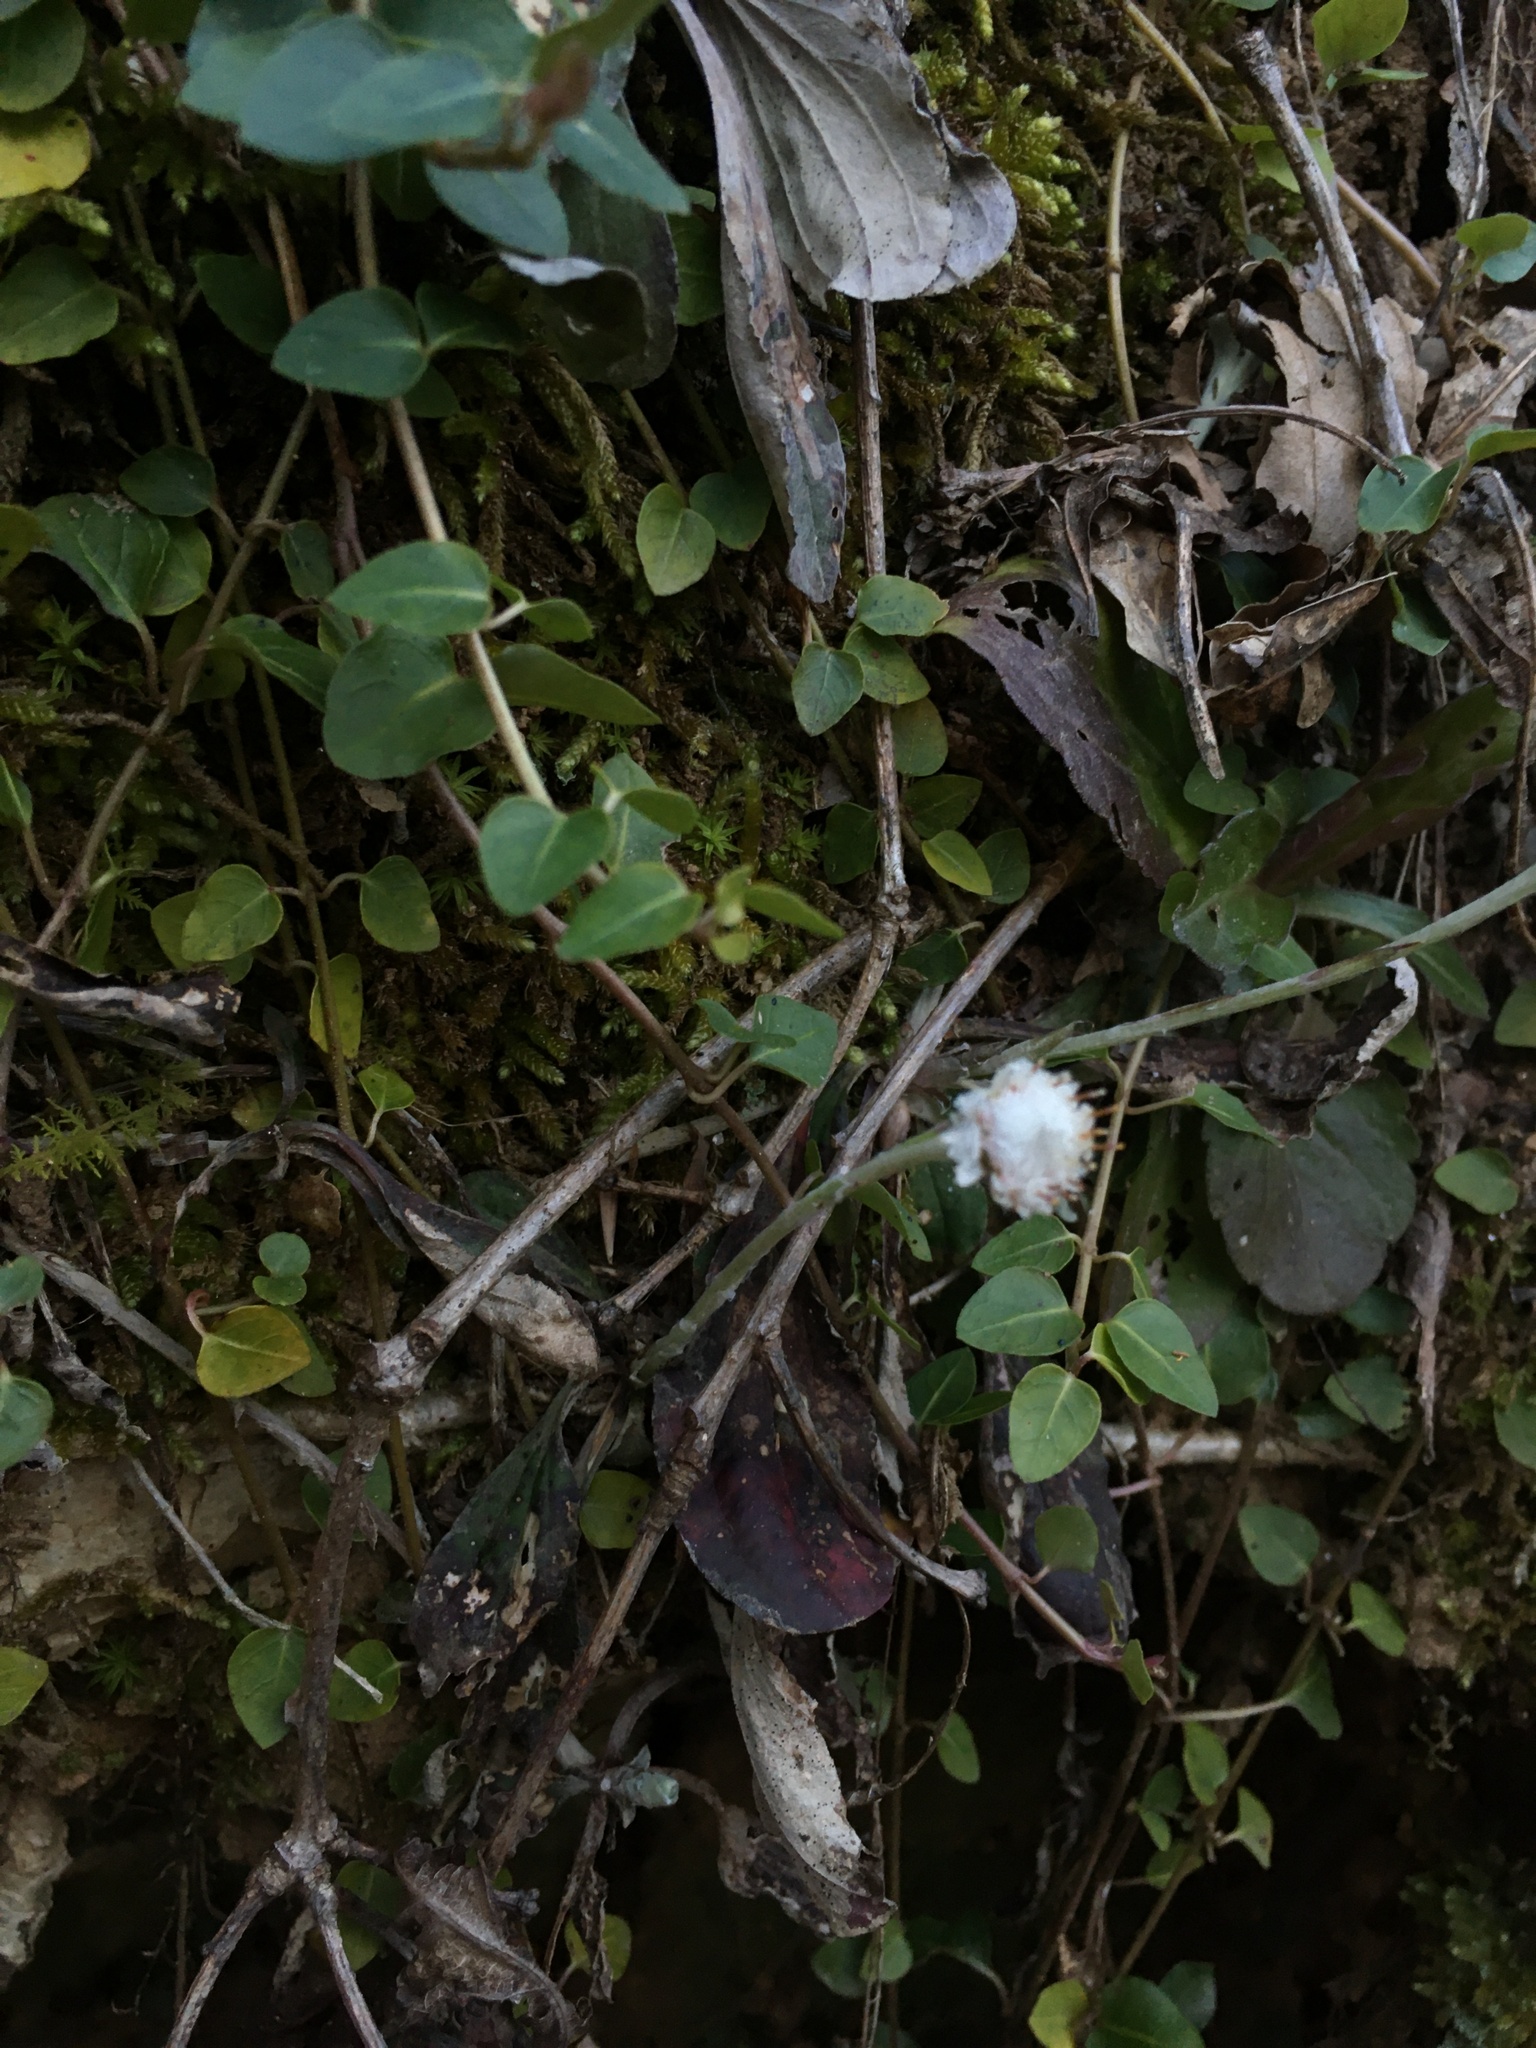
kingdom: Plantae
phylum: Tracheophyta
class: Magnoliopsida
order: Asterales
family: Asteraceae
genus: Antennaria
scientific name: Antennaria solitaria
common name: Single-head pussytoes
